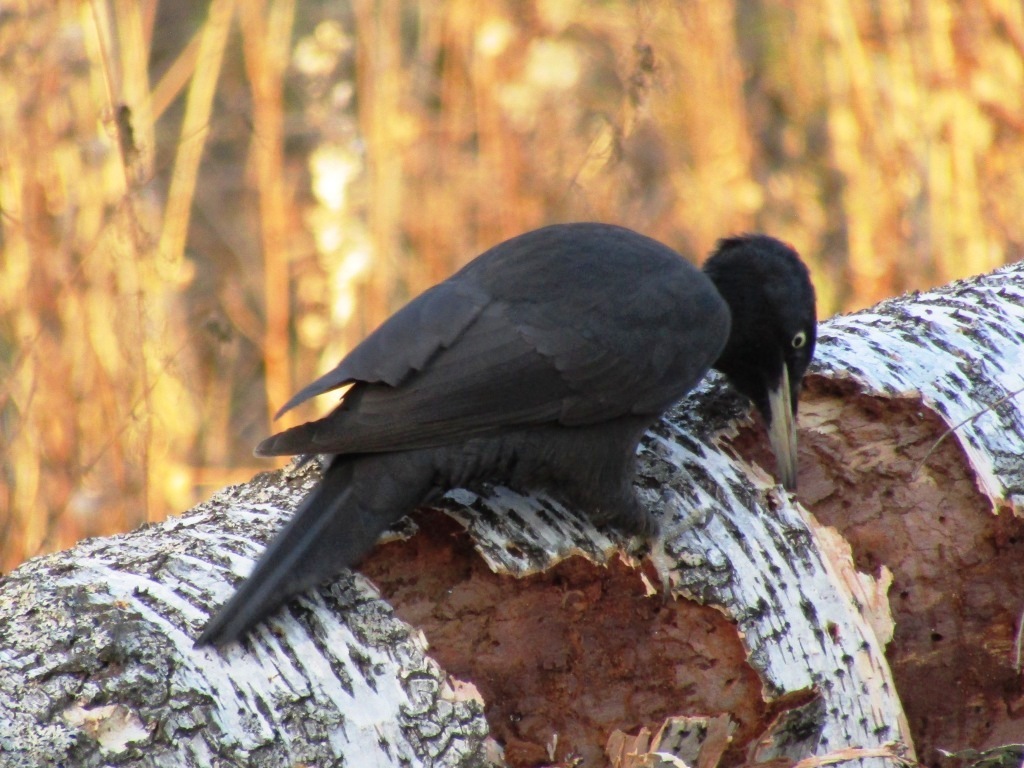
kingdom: Animalia
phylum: Chordata
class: Aves
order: Piciformes
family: Picidae
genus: Dryocopus
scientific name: Dryocopus martius
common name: Black woodpecker
